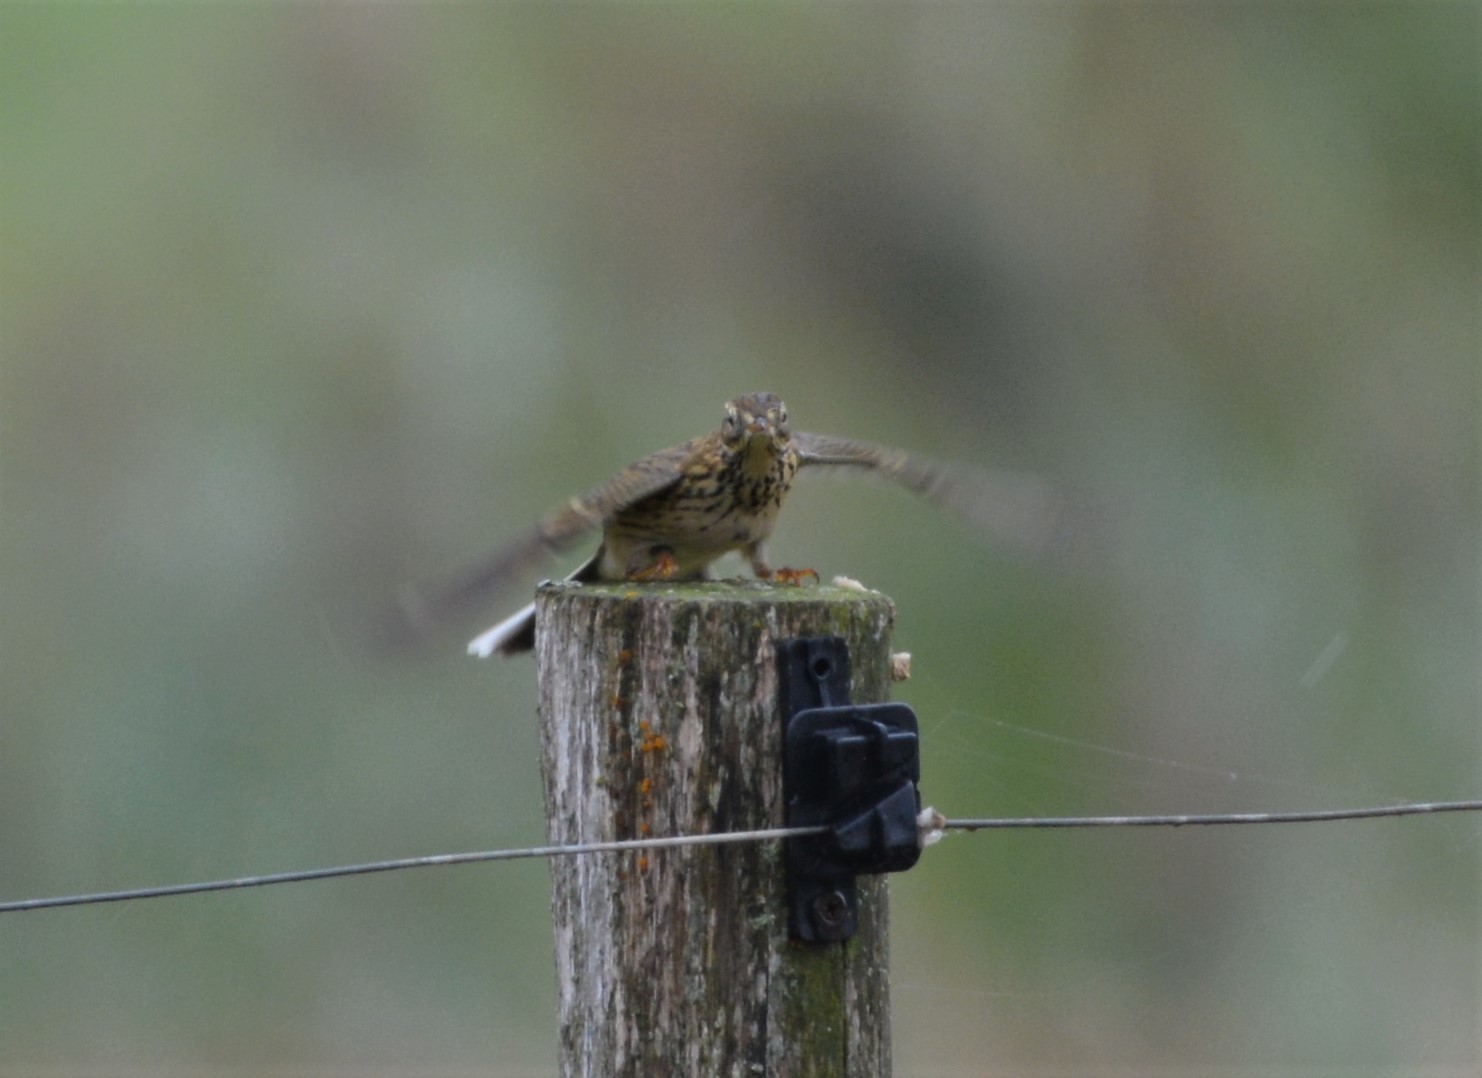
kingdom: Animalia
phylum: Chordata
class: Aves
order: Passeriformes
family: Motacillidae
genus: Anthus
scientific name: Anthus pratensis
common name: Meadow pipit
